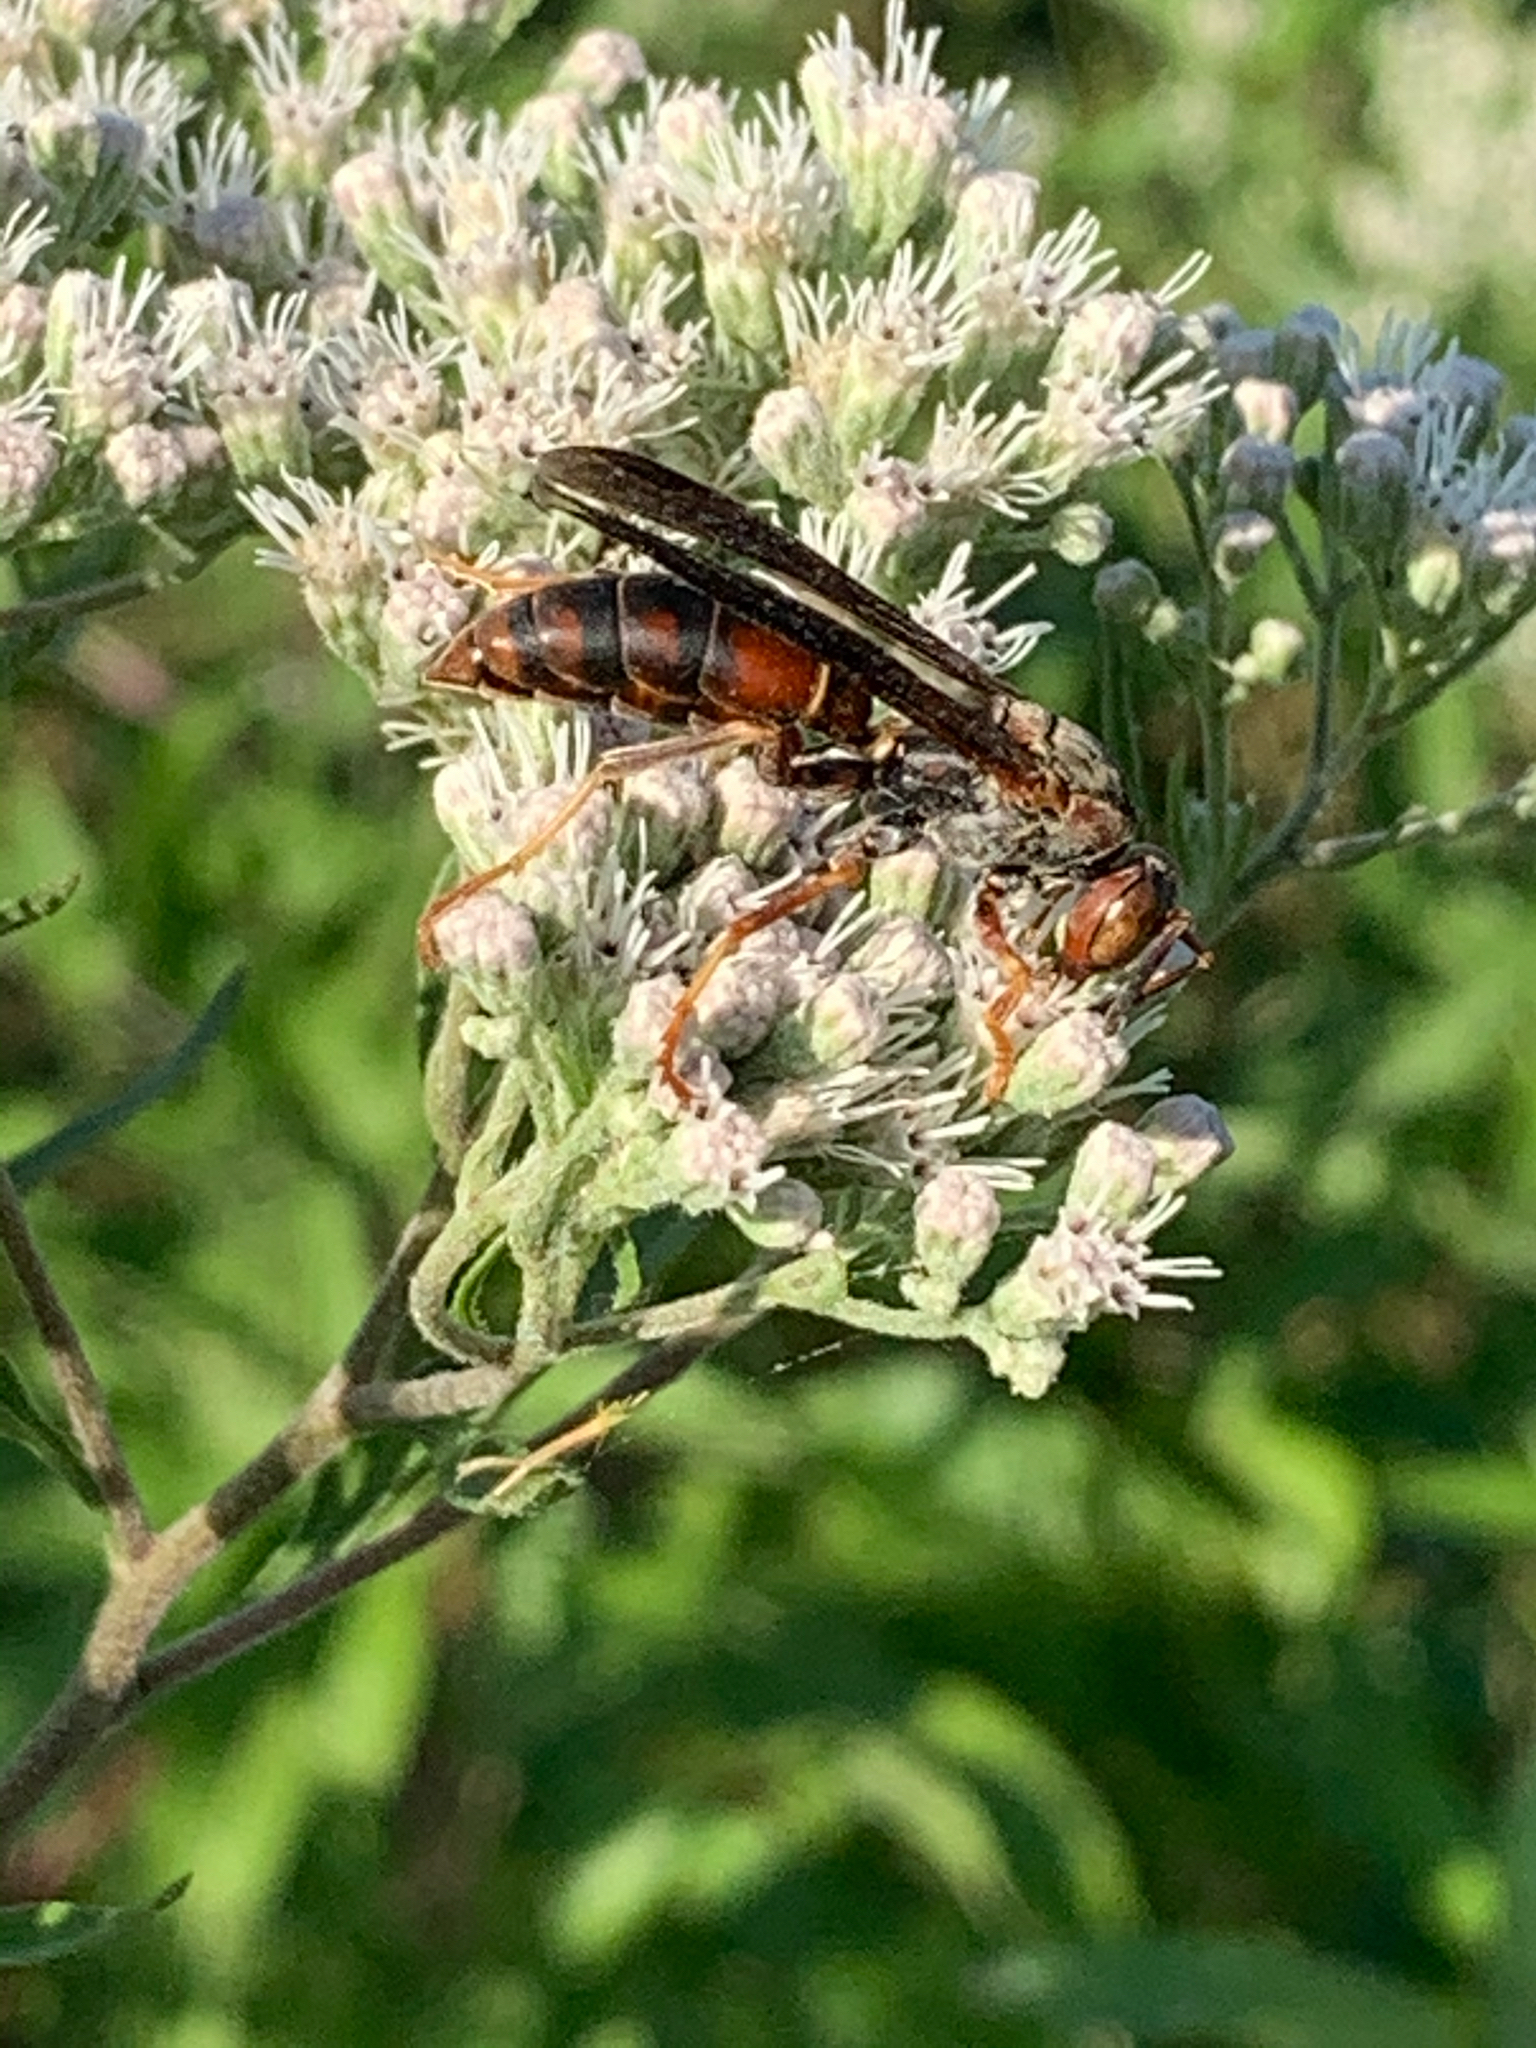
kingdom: Animalia
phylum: Arthropoda
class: Insecta
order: Hymenoptera
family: Vespidae
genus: Fuscopolistes
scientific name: Fuscopolistes
